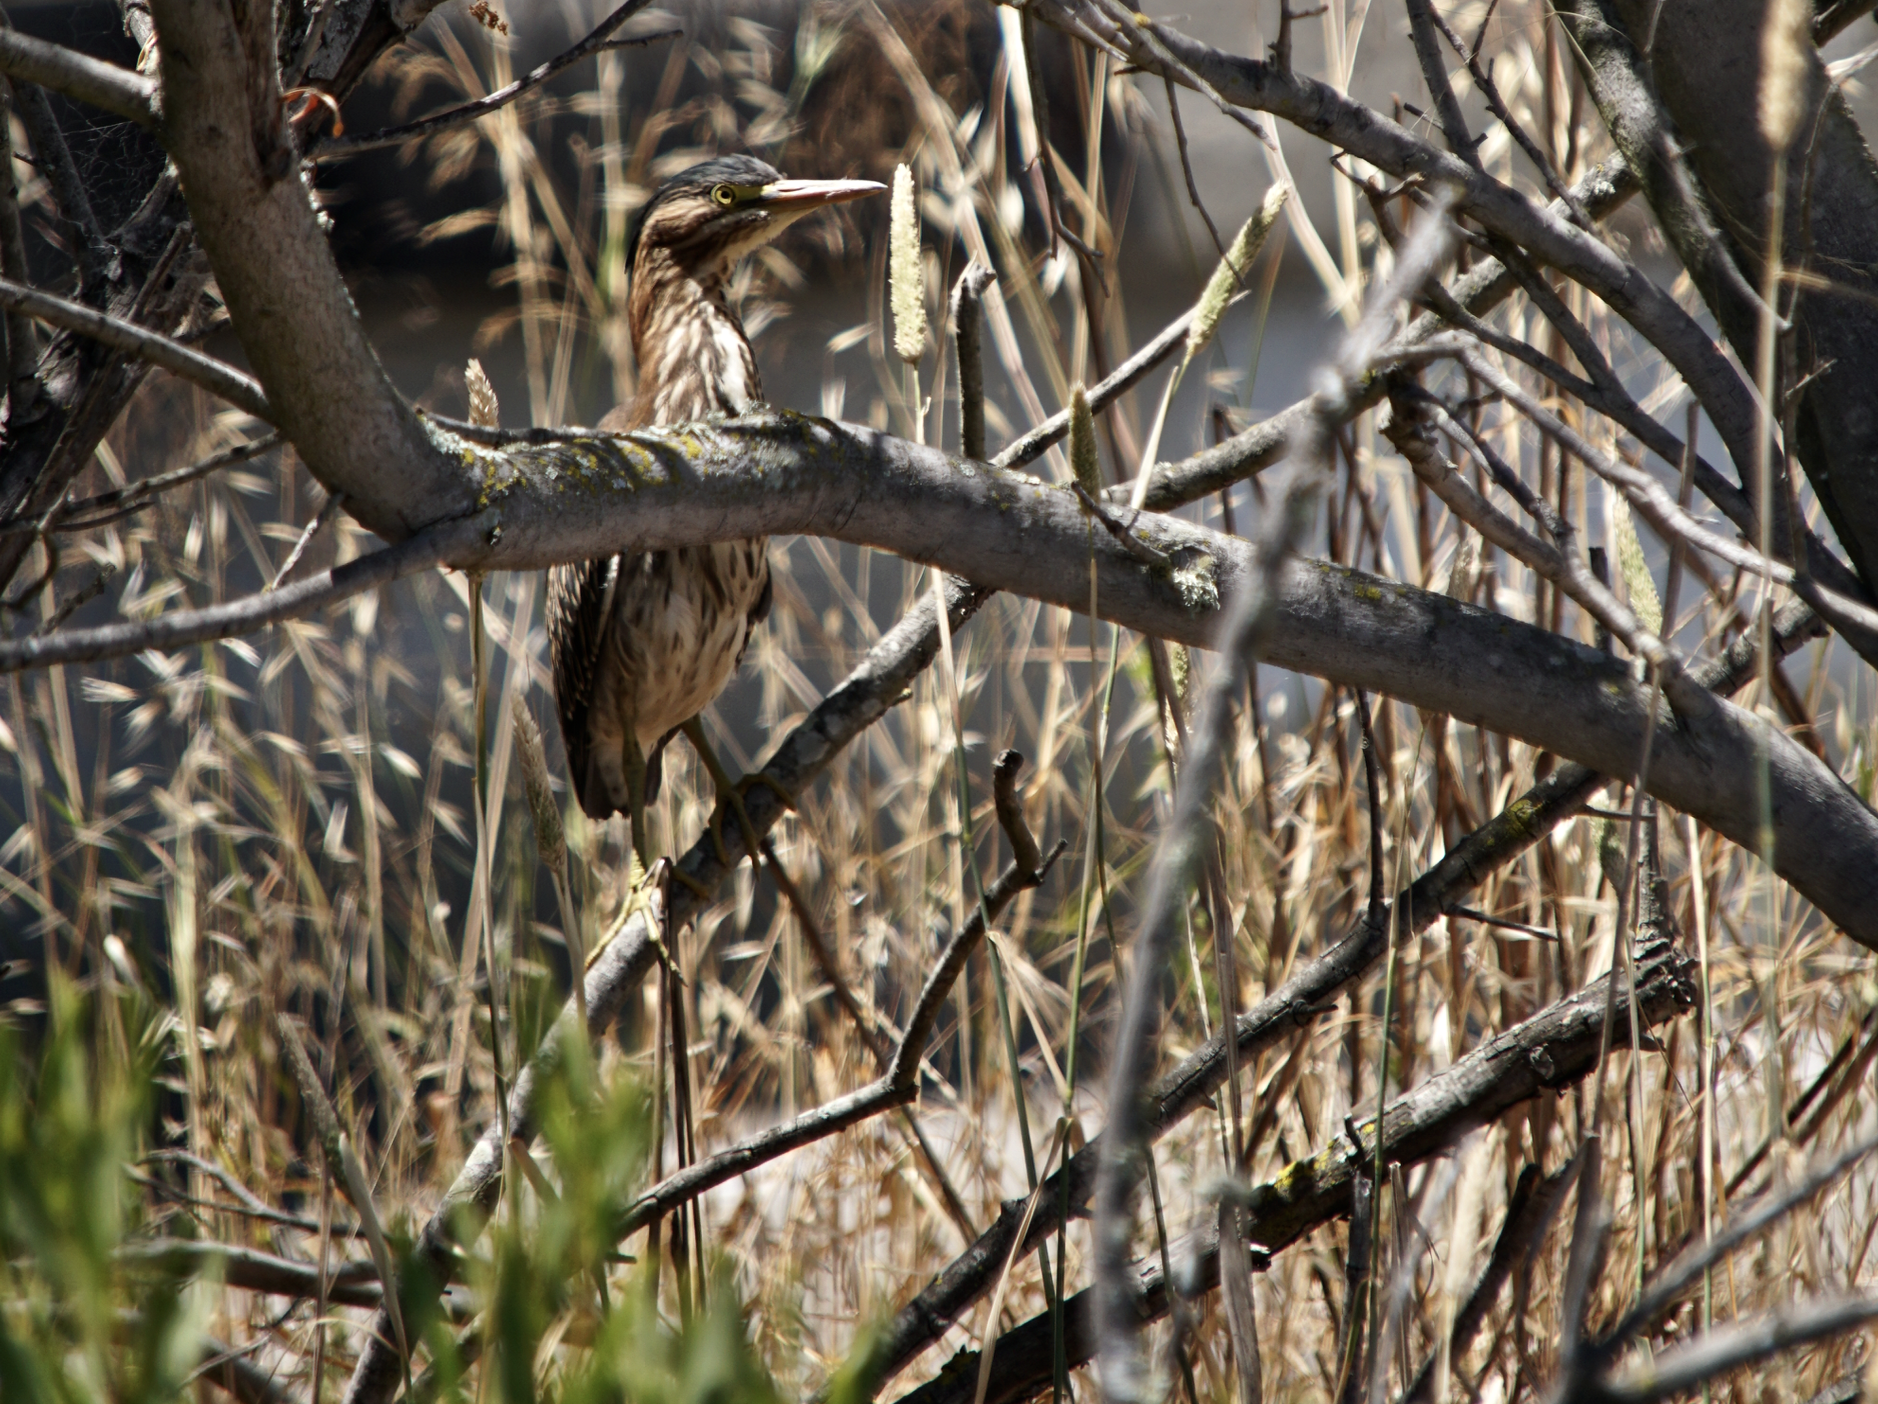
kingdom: Animalia
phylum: Chordata
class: Aves
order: Pelecaniformes
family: Ardeidae
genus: Butorides
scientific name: Butorides virescens
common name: Green heron
